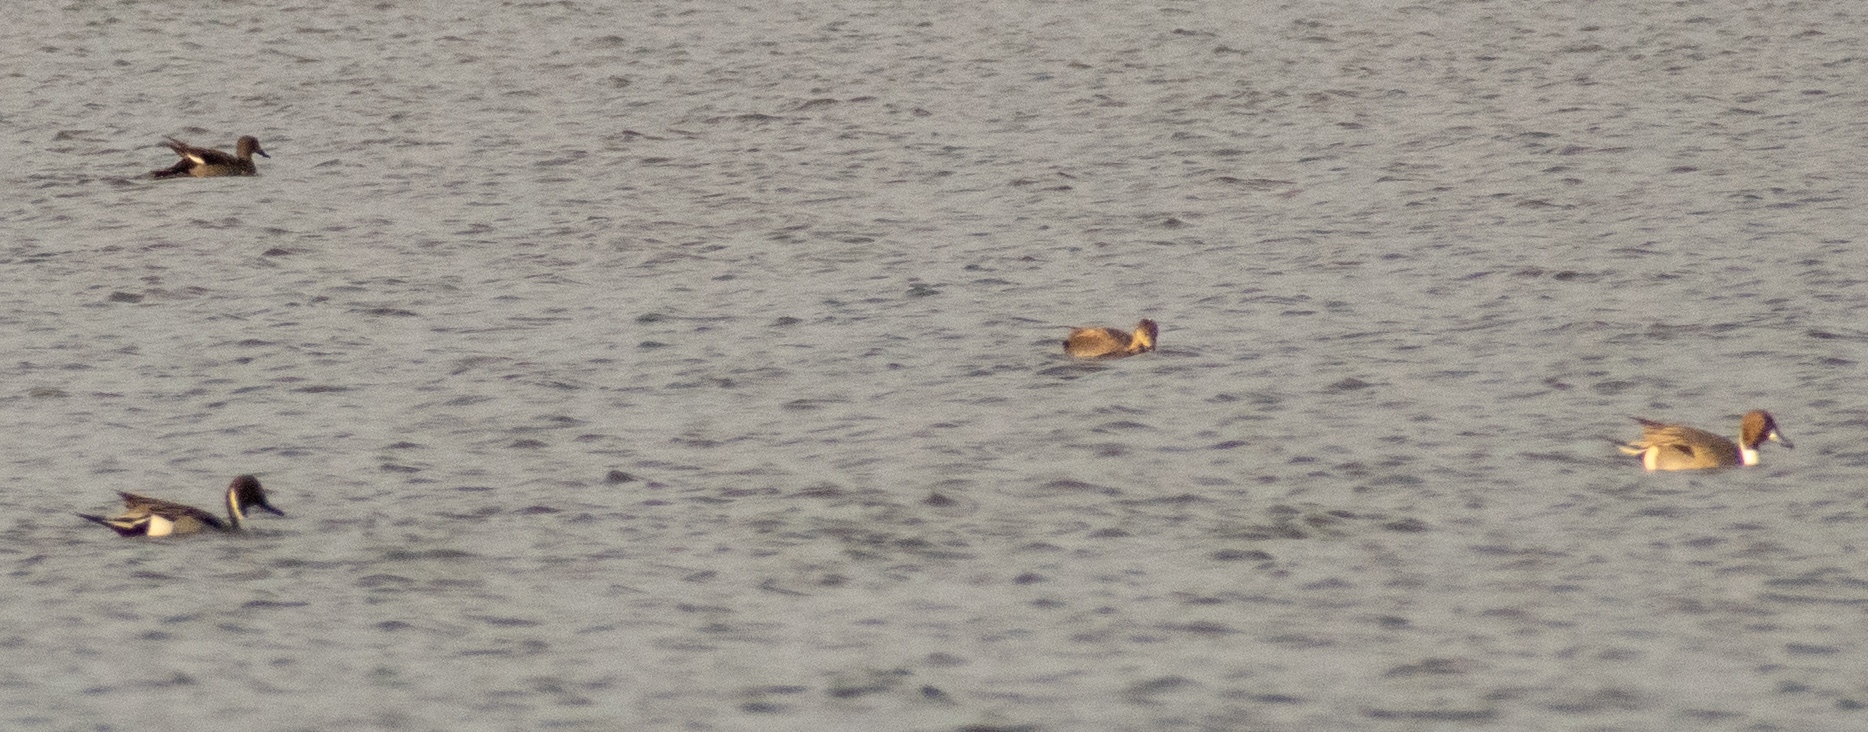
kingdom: Animalia
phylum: Chordata
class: Aves
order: Anseriformes
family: Anatidae
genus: Anas
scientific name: Anas acuta
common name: Northern pintail
